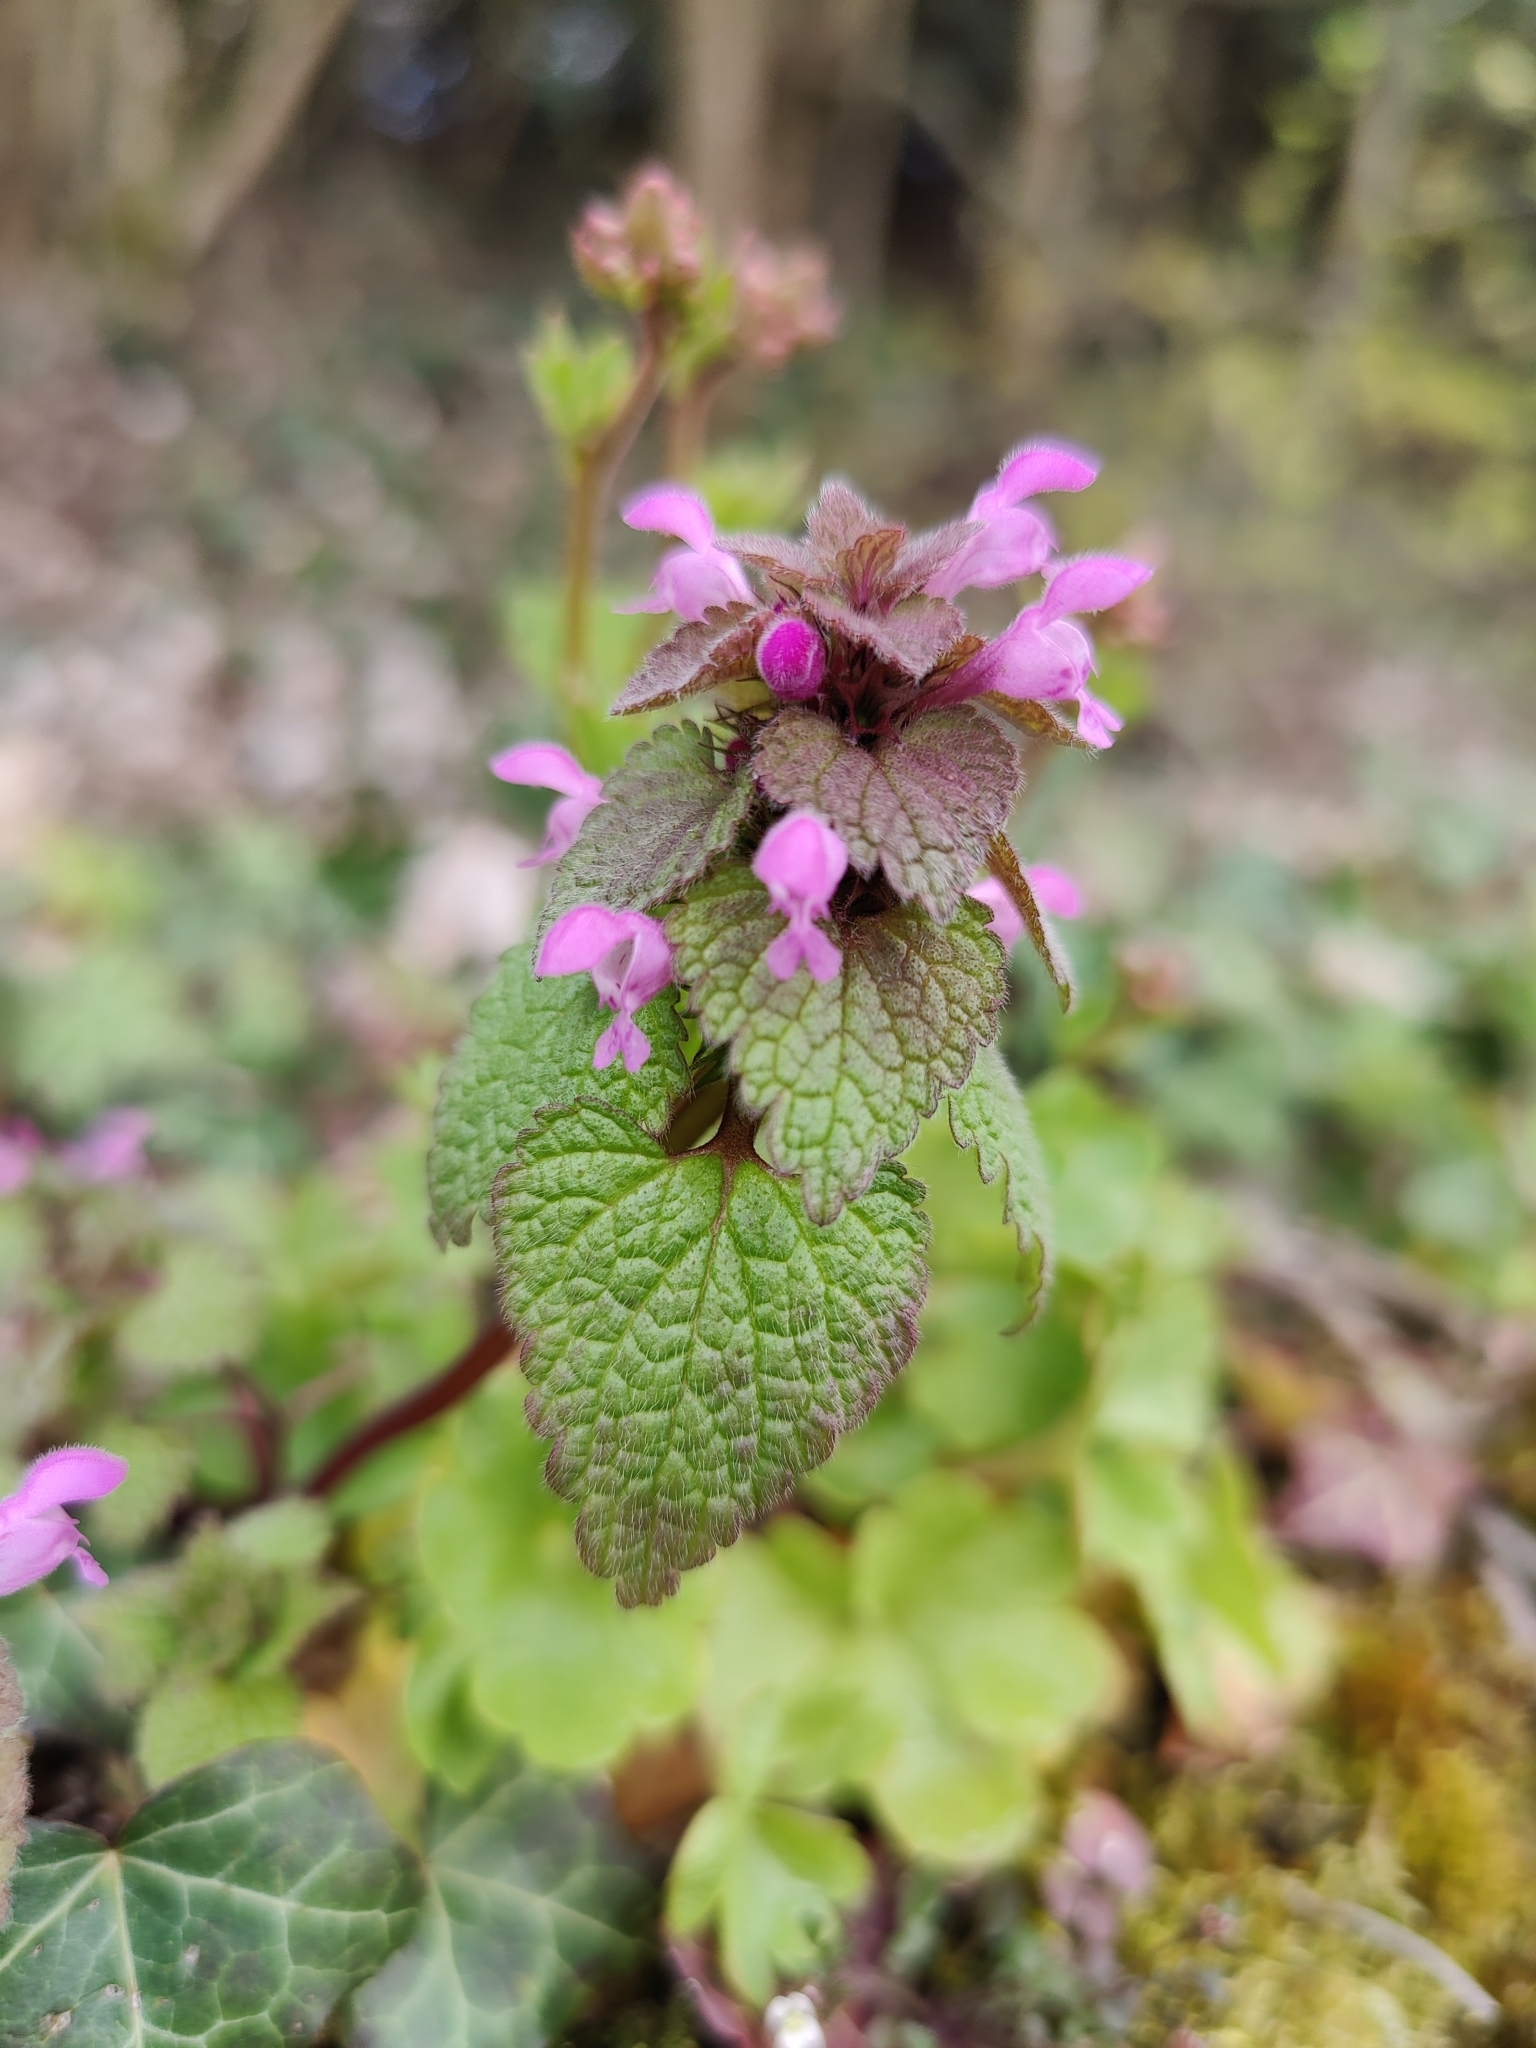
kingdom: Plantae
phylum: Tracheophyta
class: Magnoliopsida
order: Lamiales
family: Lamiaceae
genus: Lamium
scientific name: Lamium purpureum
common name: Red dead-nettle
